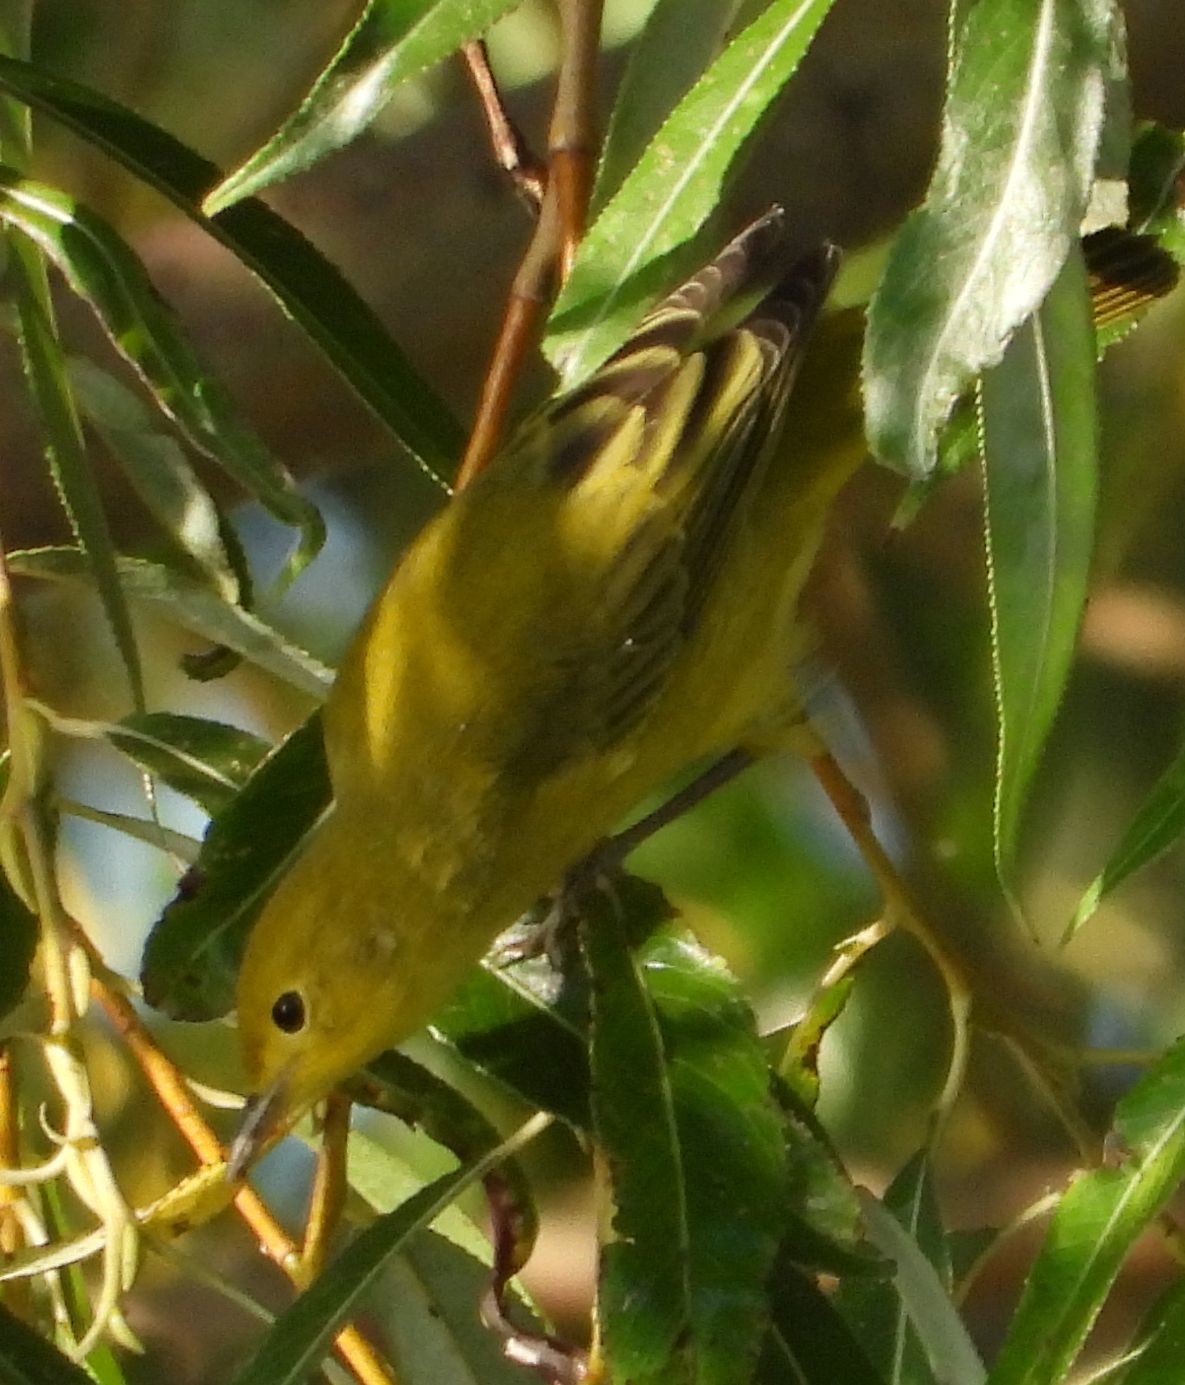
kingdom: Animalia
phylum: Chordata
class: Aves
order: Passeriformes
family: Parulidae
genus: Setophaga
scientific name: Setophaga petechia
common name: Yellow warbler
